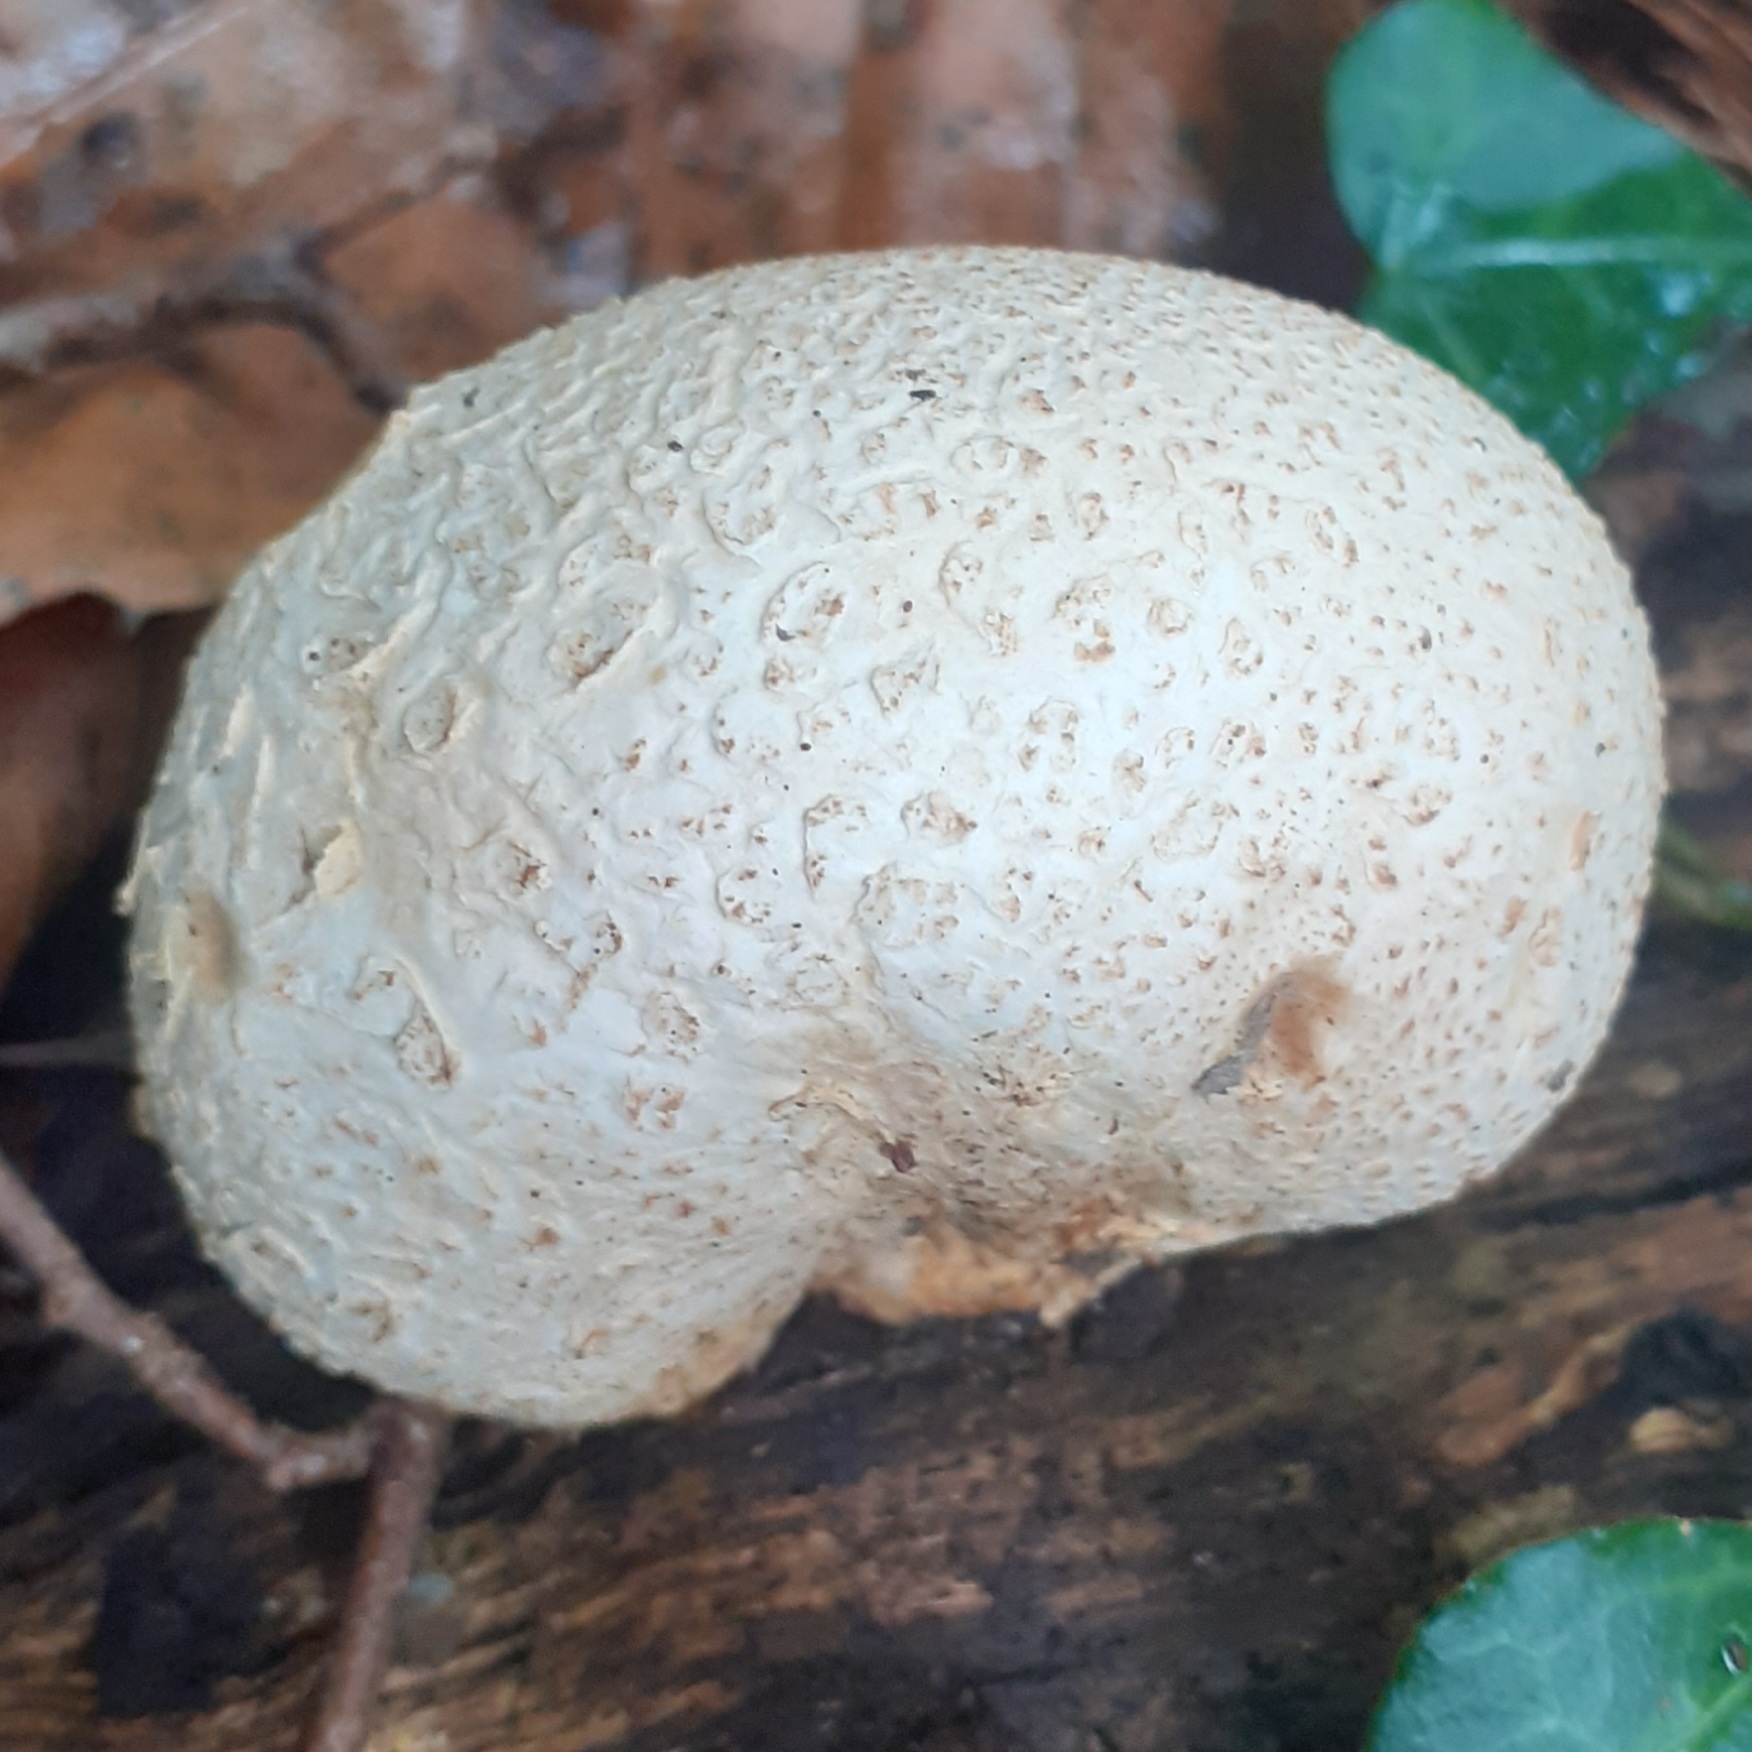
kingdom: Fungi
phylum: Basidiomycota
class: Agaricomycetes
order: Boletales
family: Sclerodermataceae
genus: Scleroderma
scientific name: Scleroderma citrinum
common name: Common earthball
